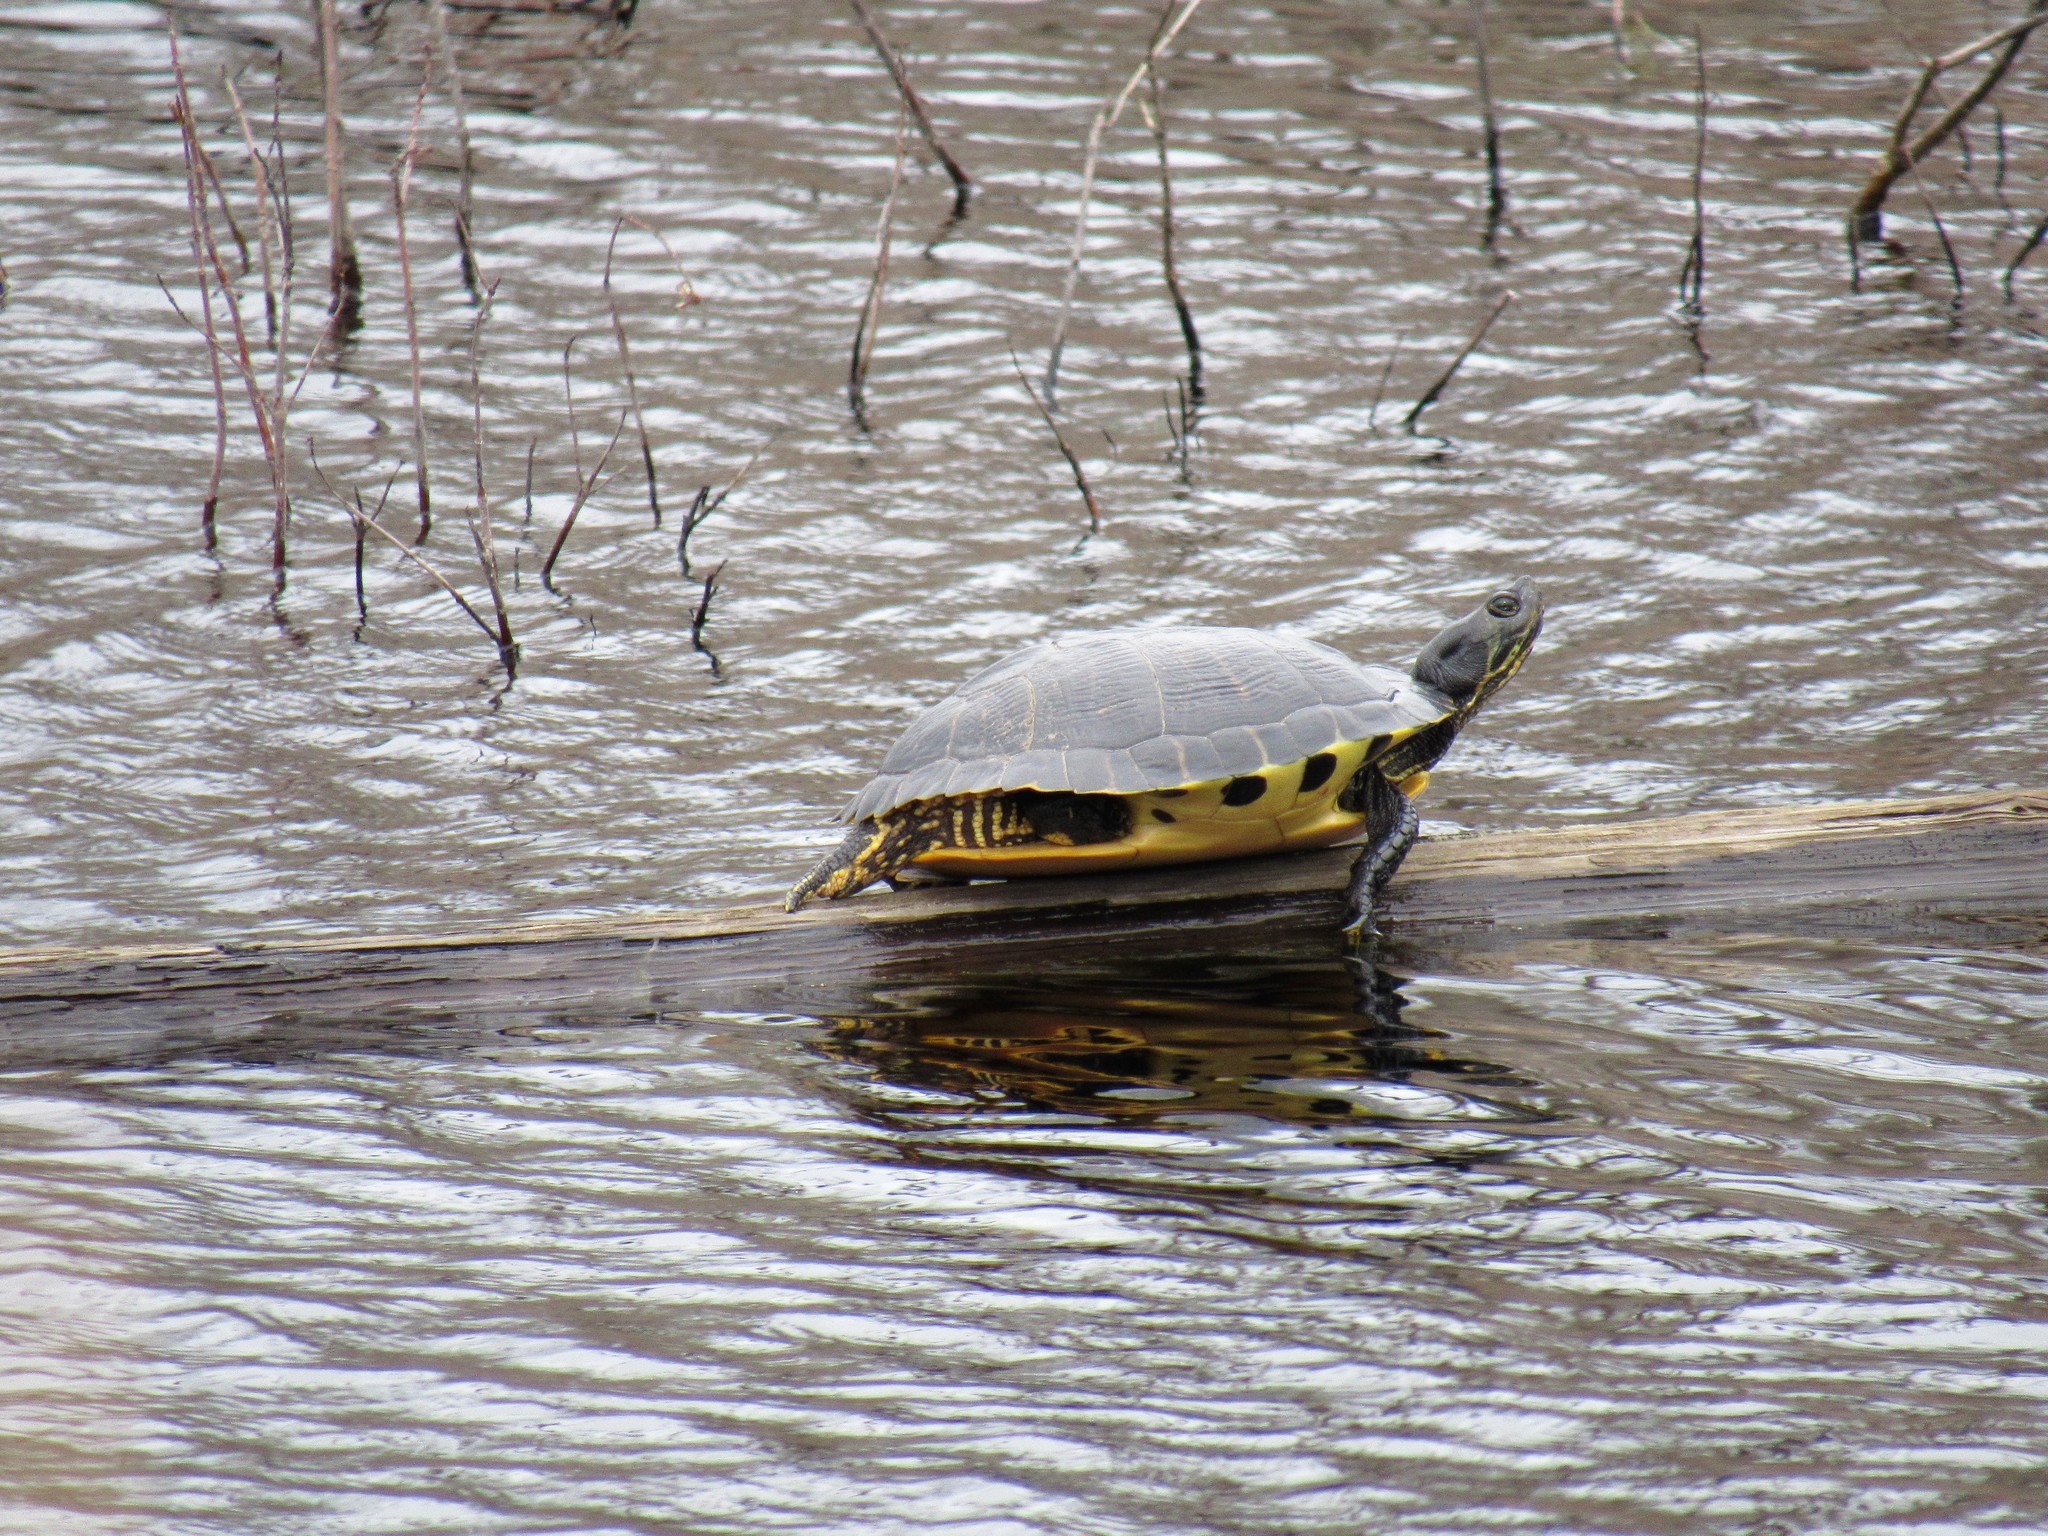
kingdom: Animalia
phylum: Chordata
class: Testudines
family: Emydidae
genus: Trachemys
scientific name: Trachemys scripta
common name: Slider
